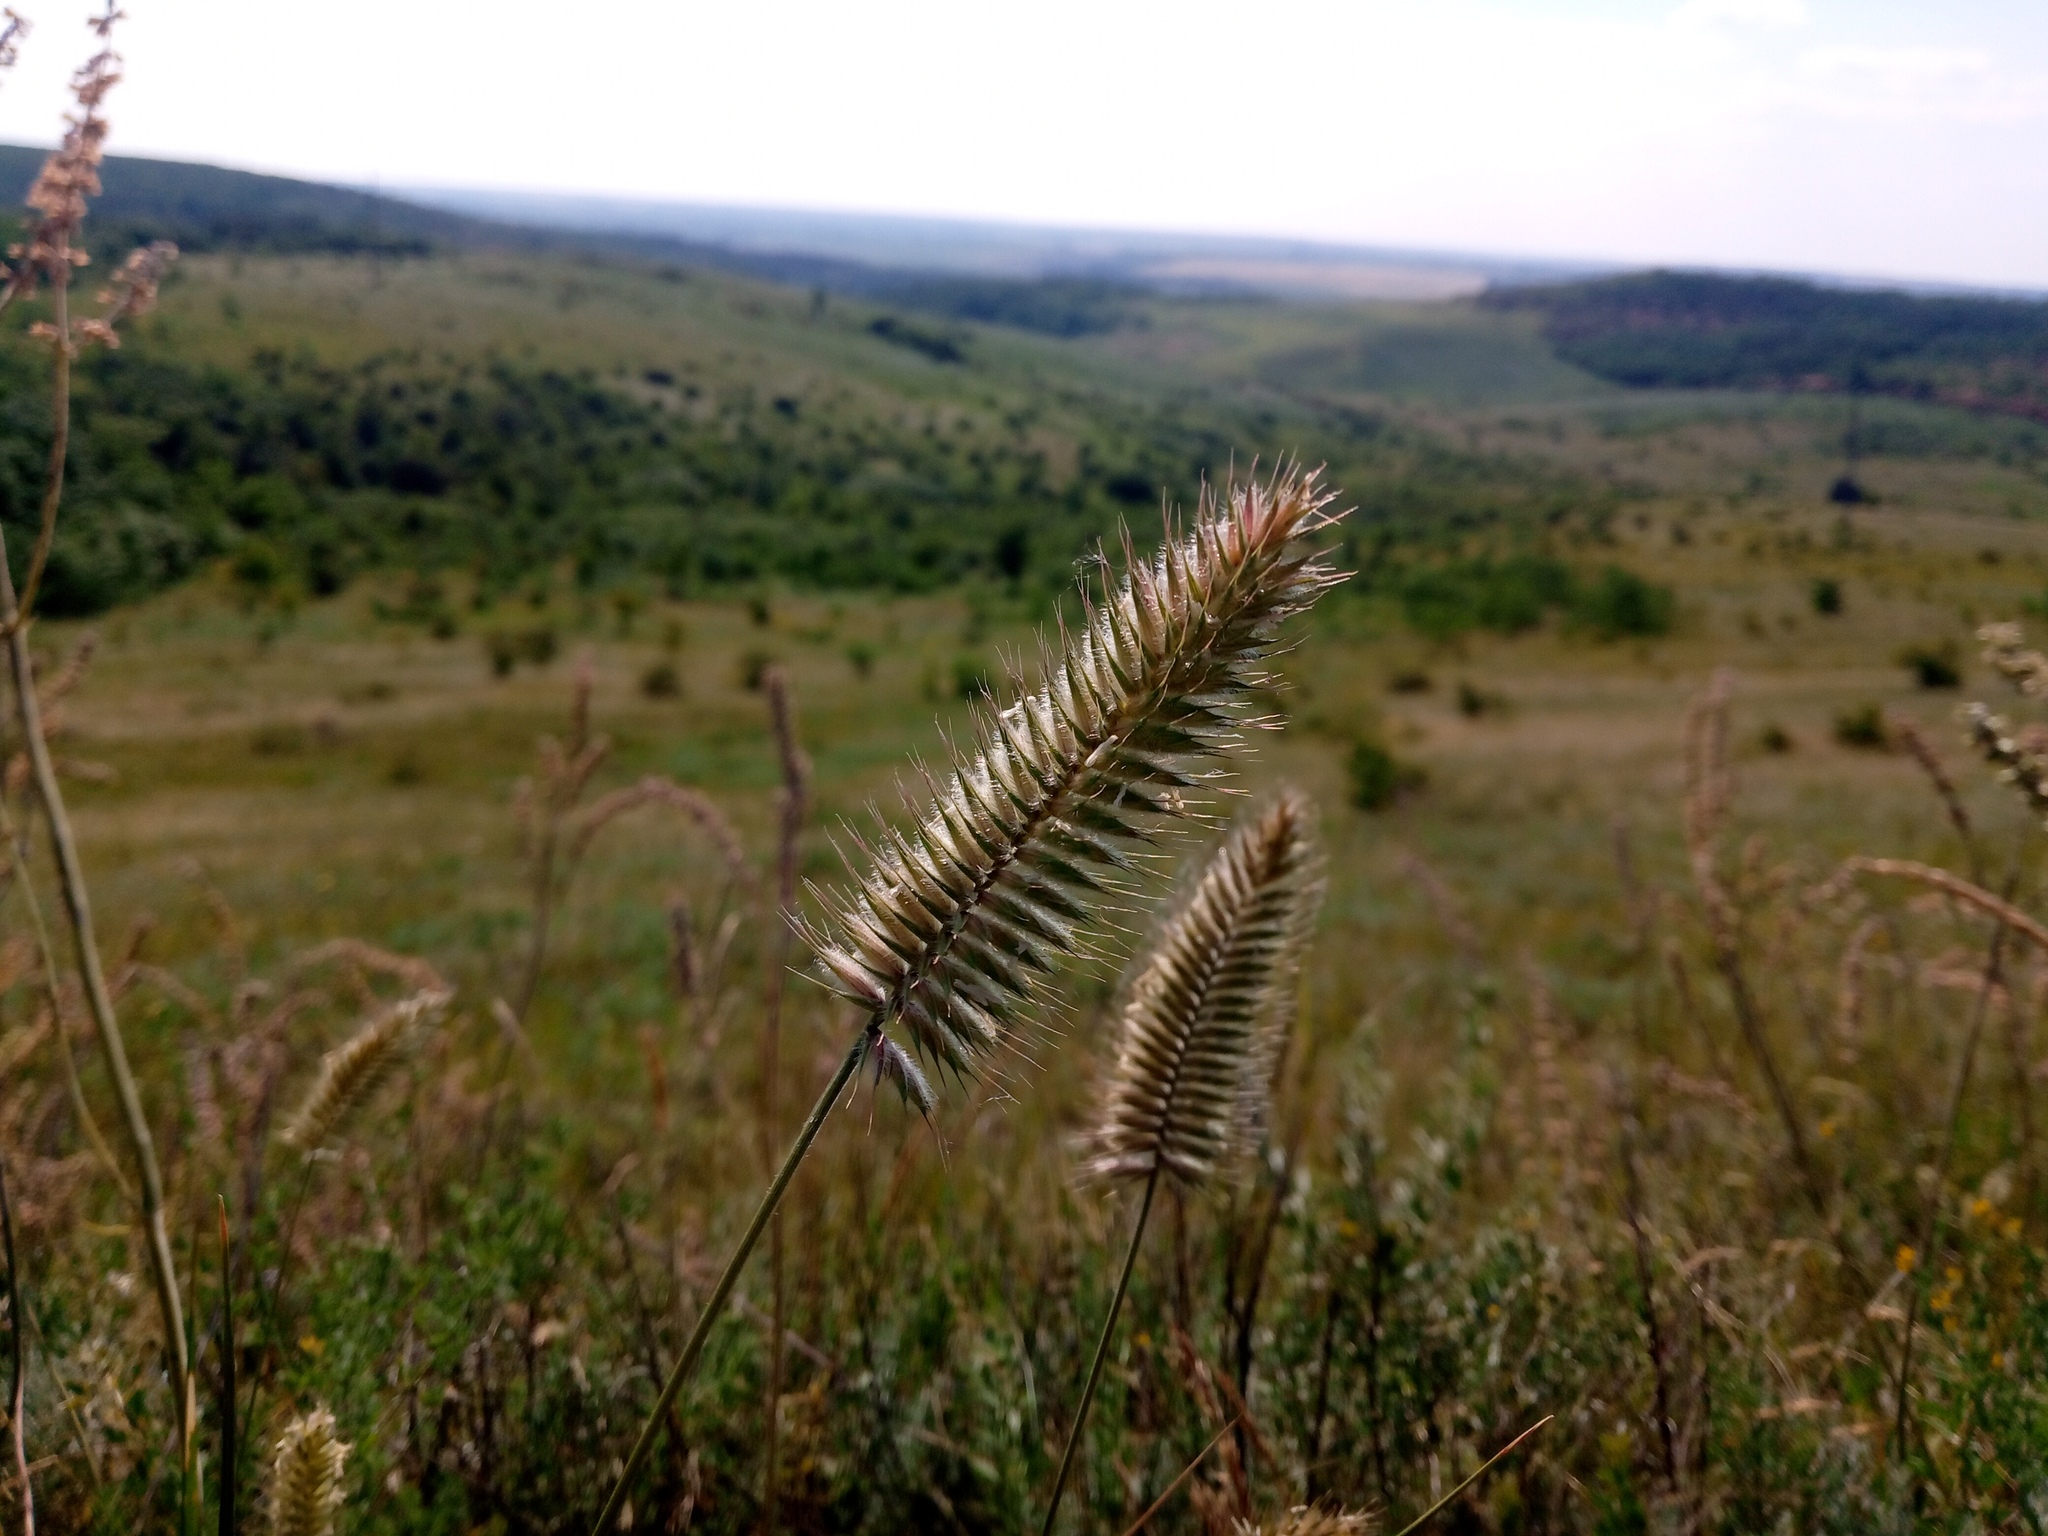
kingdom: Plantae
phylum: Tracheophyta
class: Liliopsida
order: Poales
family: Poaceae
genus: Agropyron
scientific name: Agropyron cristatum
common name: Crested wheatgrass
